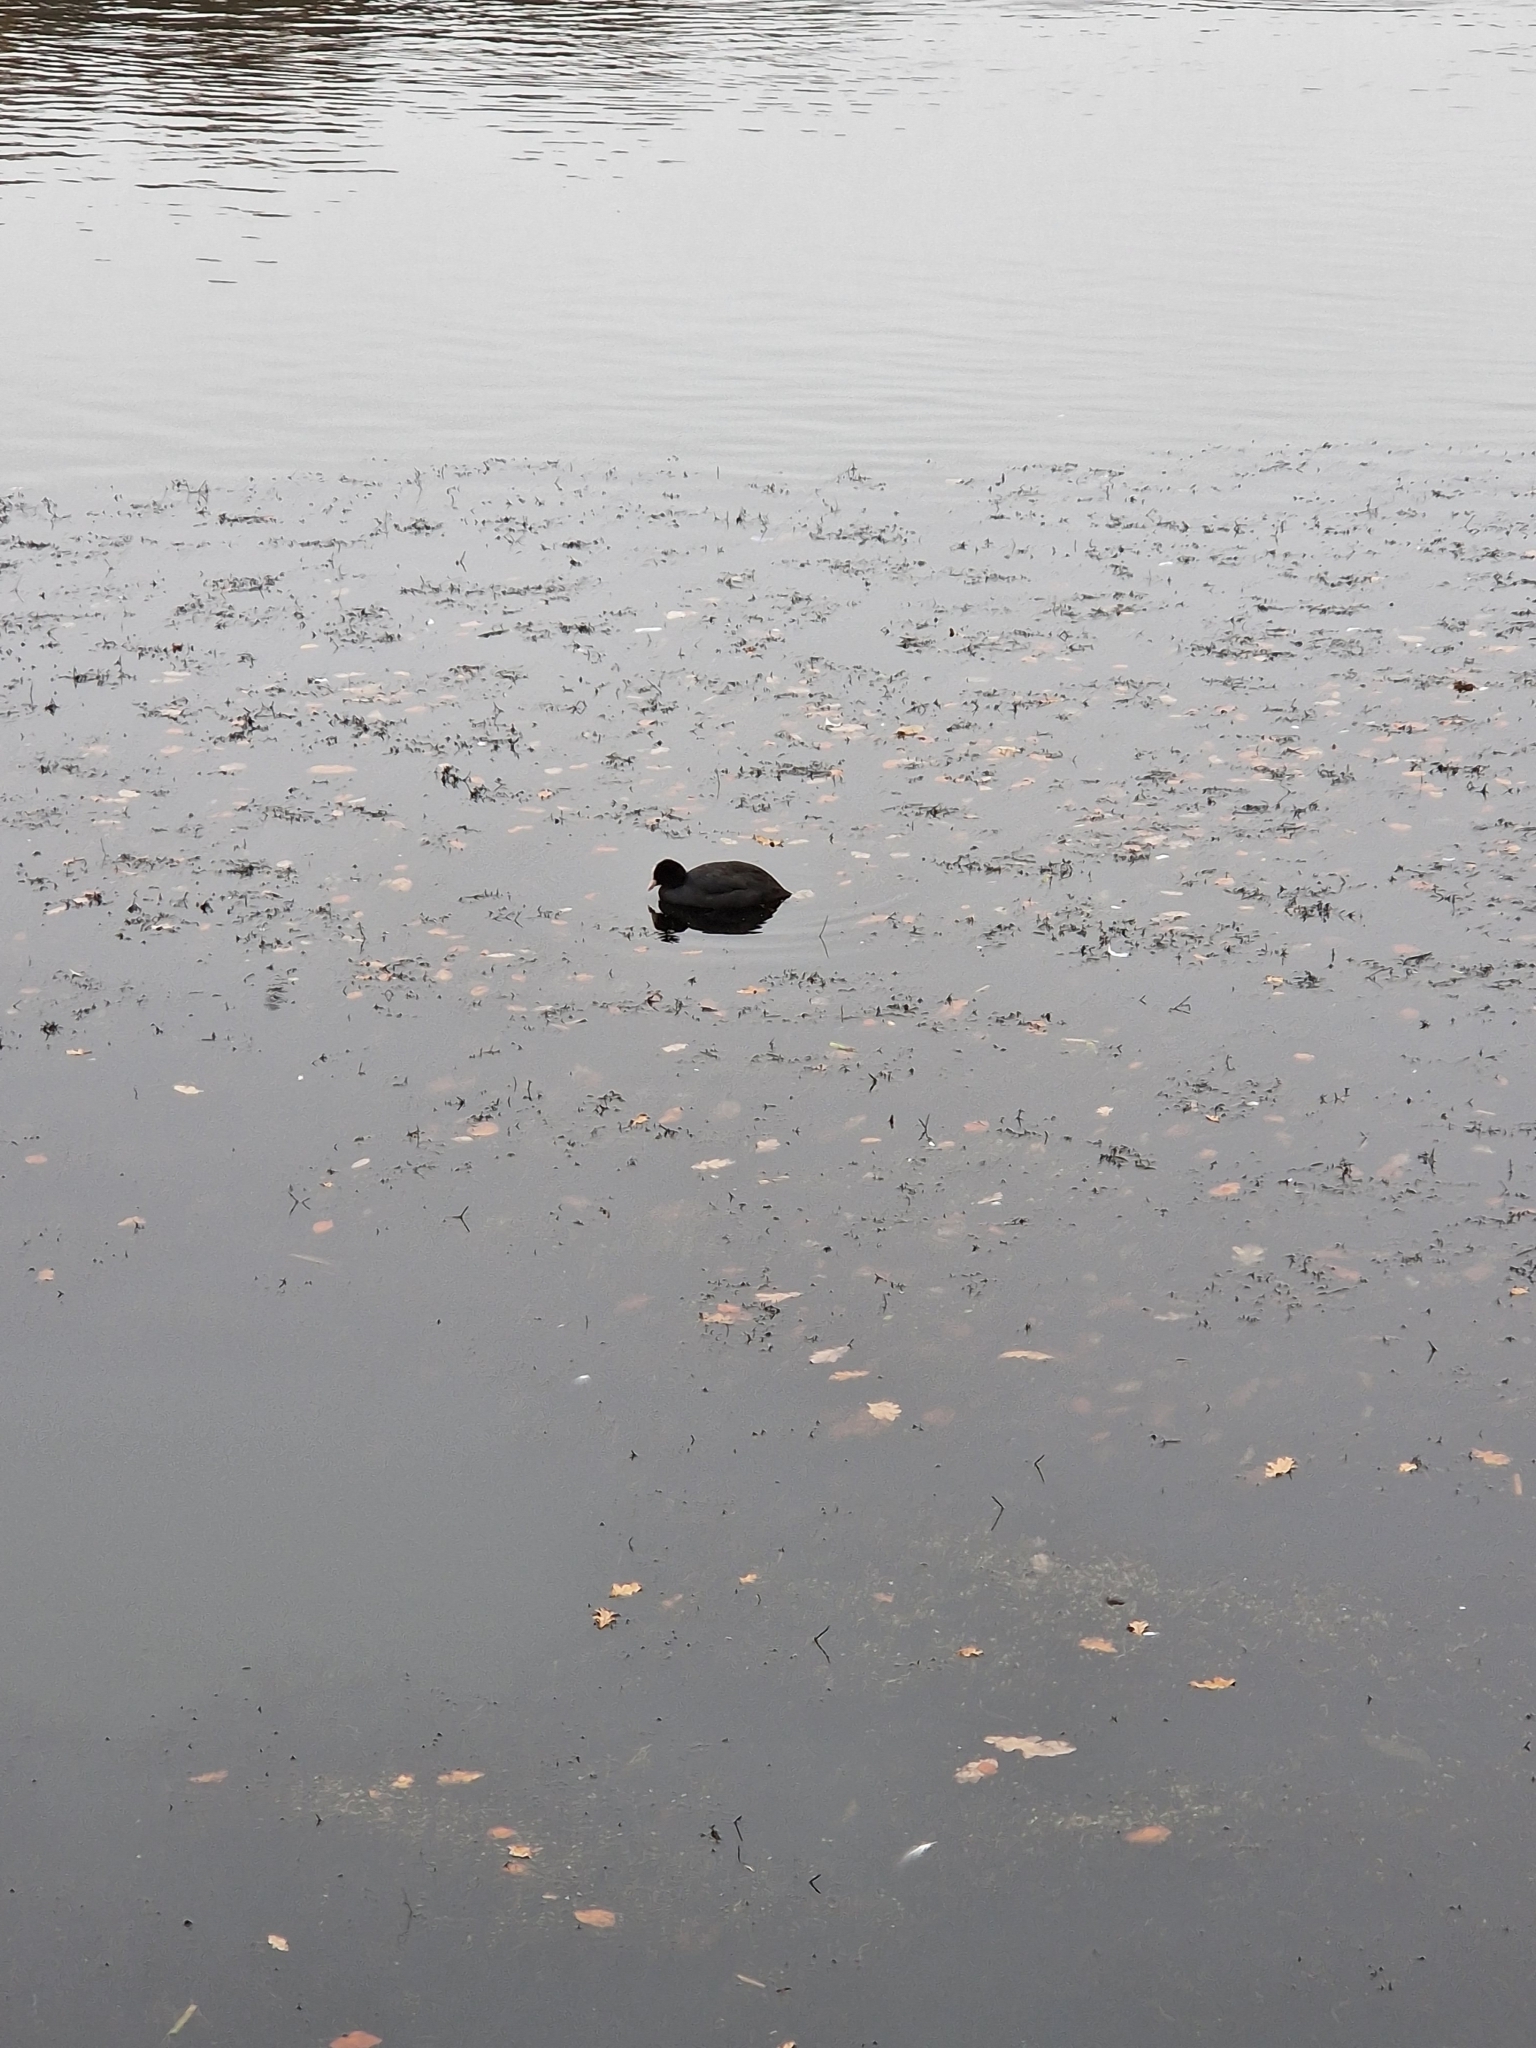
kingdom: Animalia
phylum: Chordata
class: Aves
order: Gruiformes
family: Rallidae
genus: Fulica
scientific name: Fulica atra
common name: Eurasian coot
